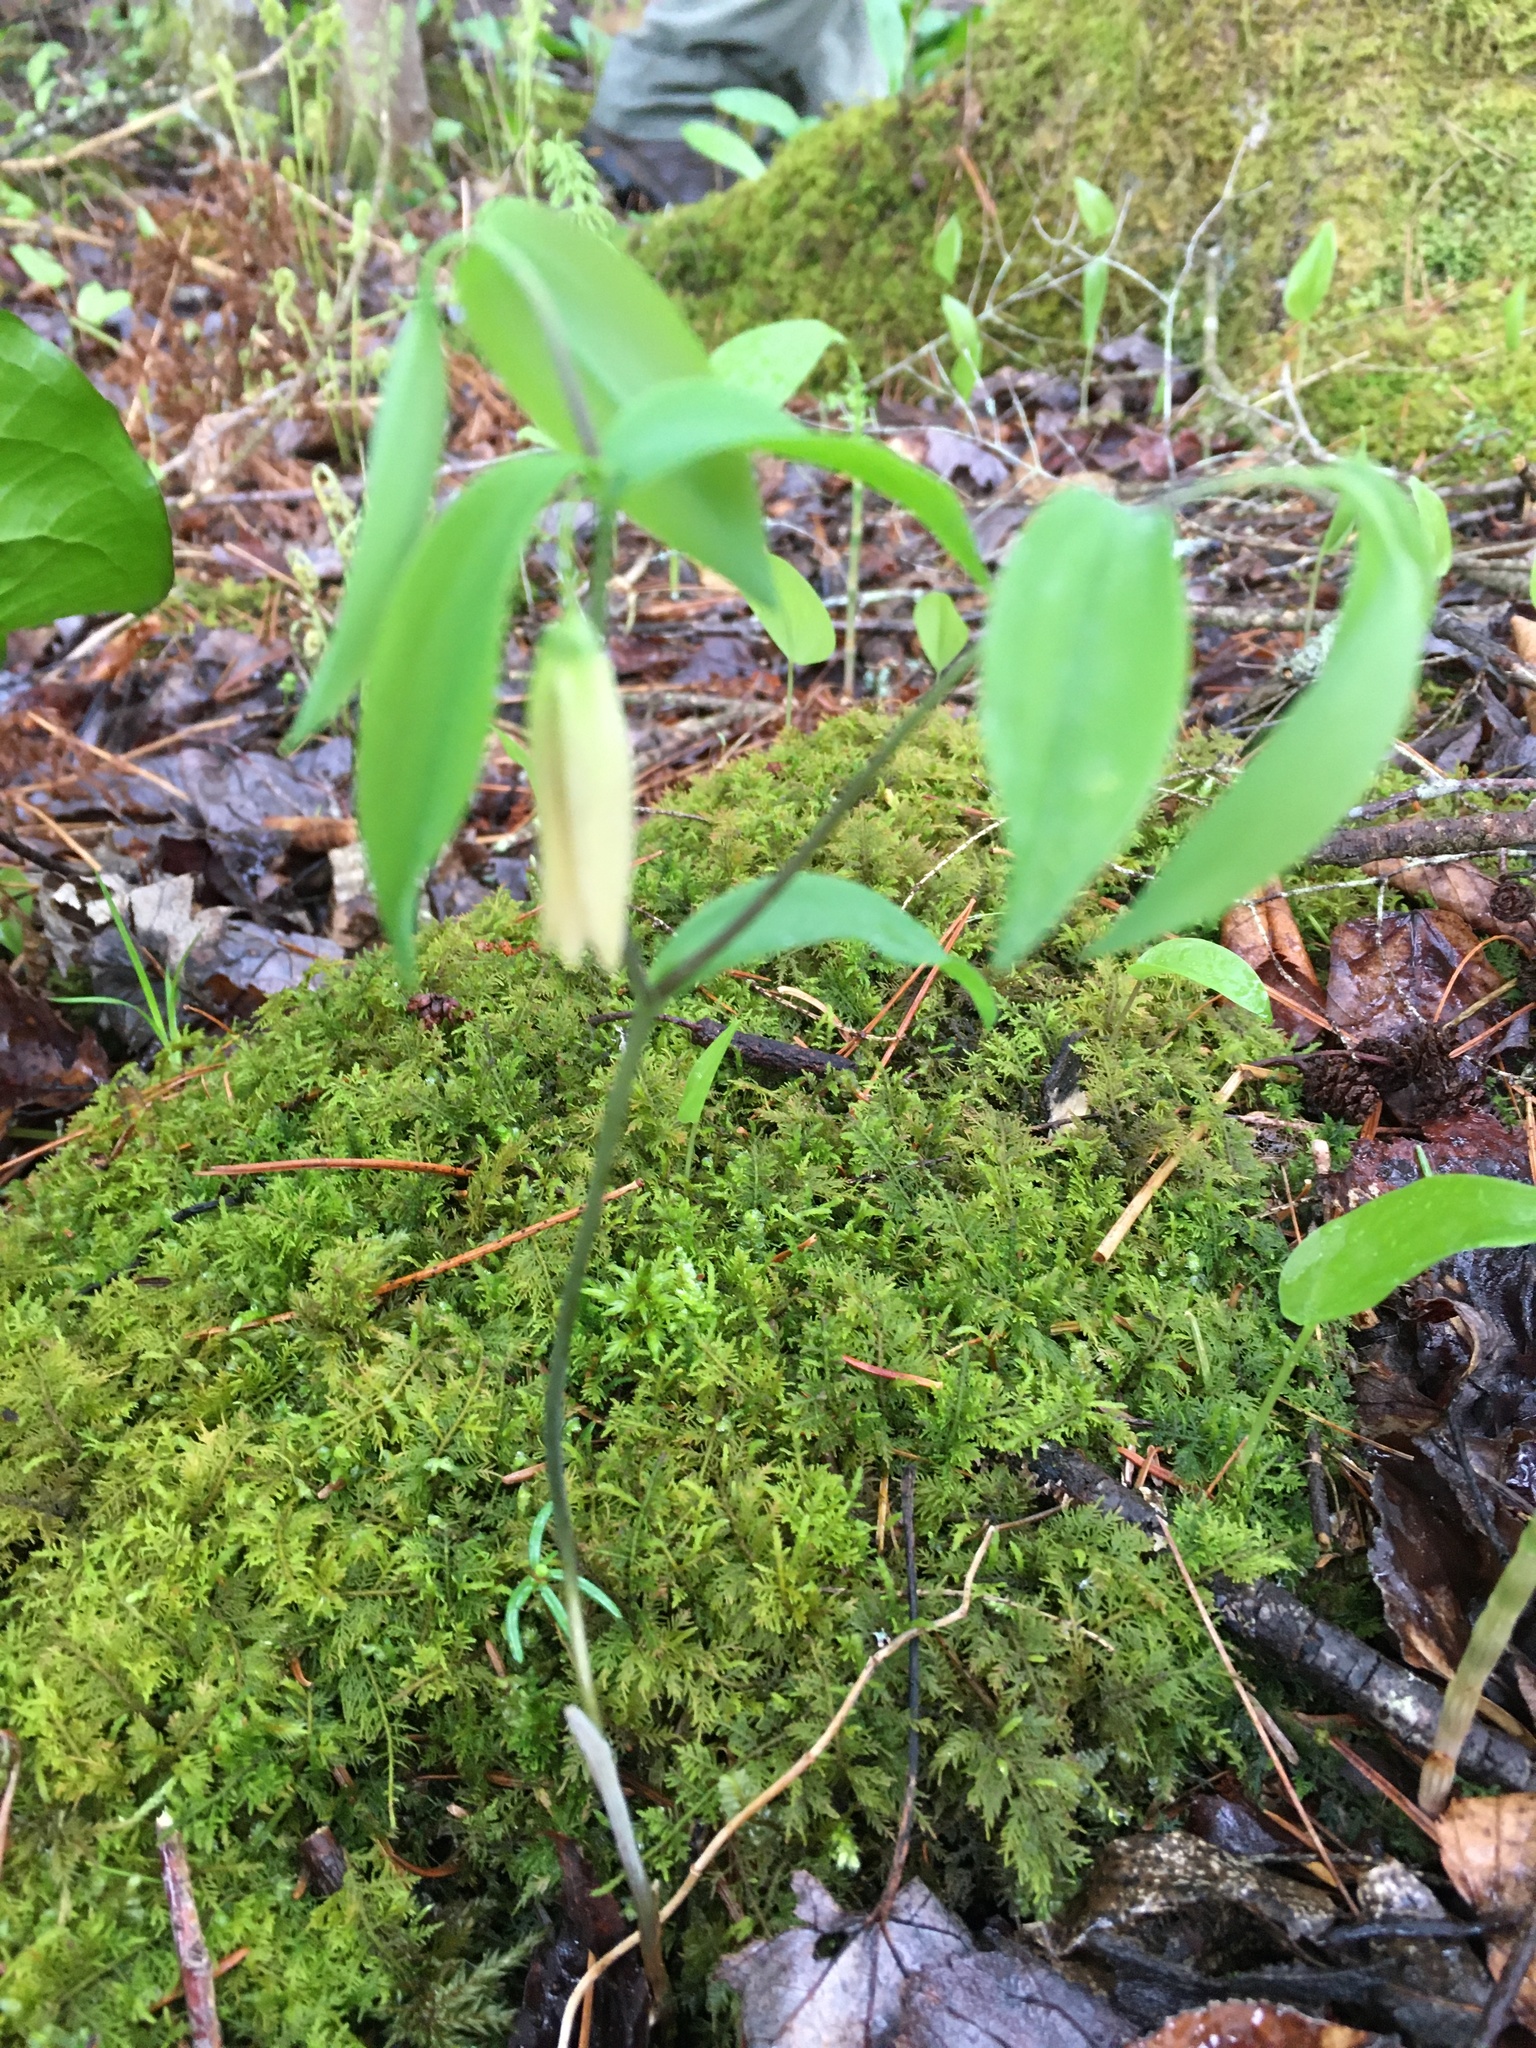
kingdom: Plantae
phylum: Tracheophyta
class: Liliopsida
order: Liliales
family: Colchicaceae
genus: Uvularia
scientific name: Uvularia sessilifolia
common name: Straw-lily
